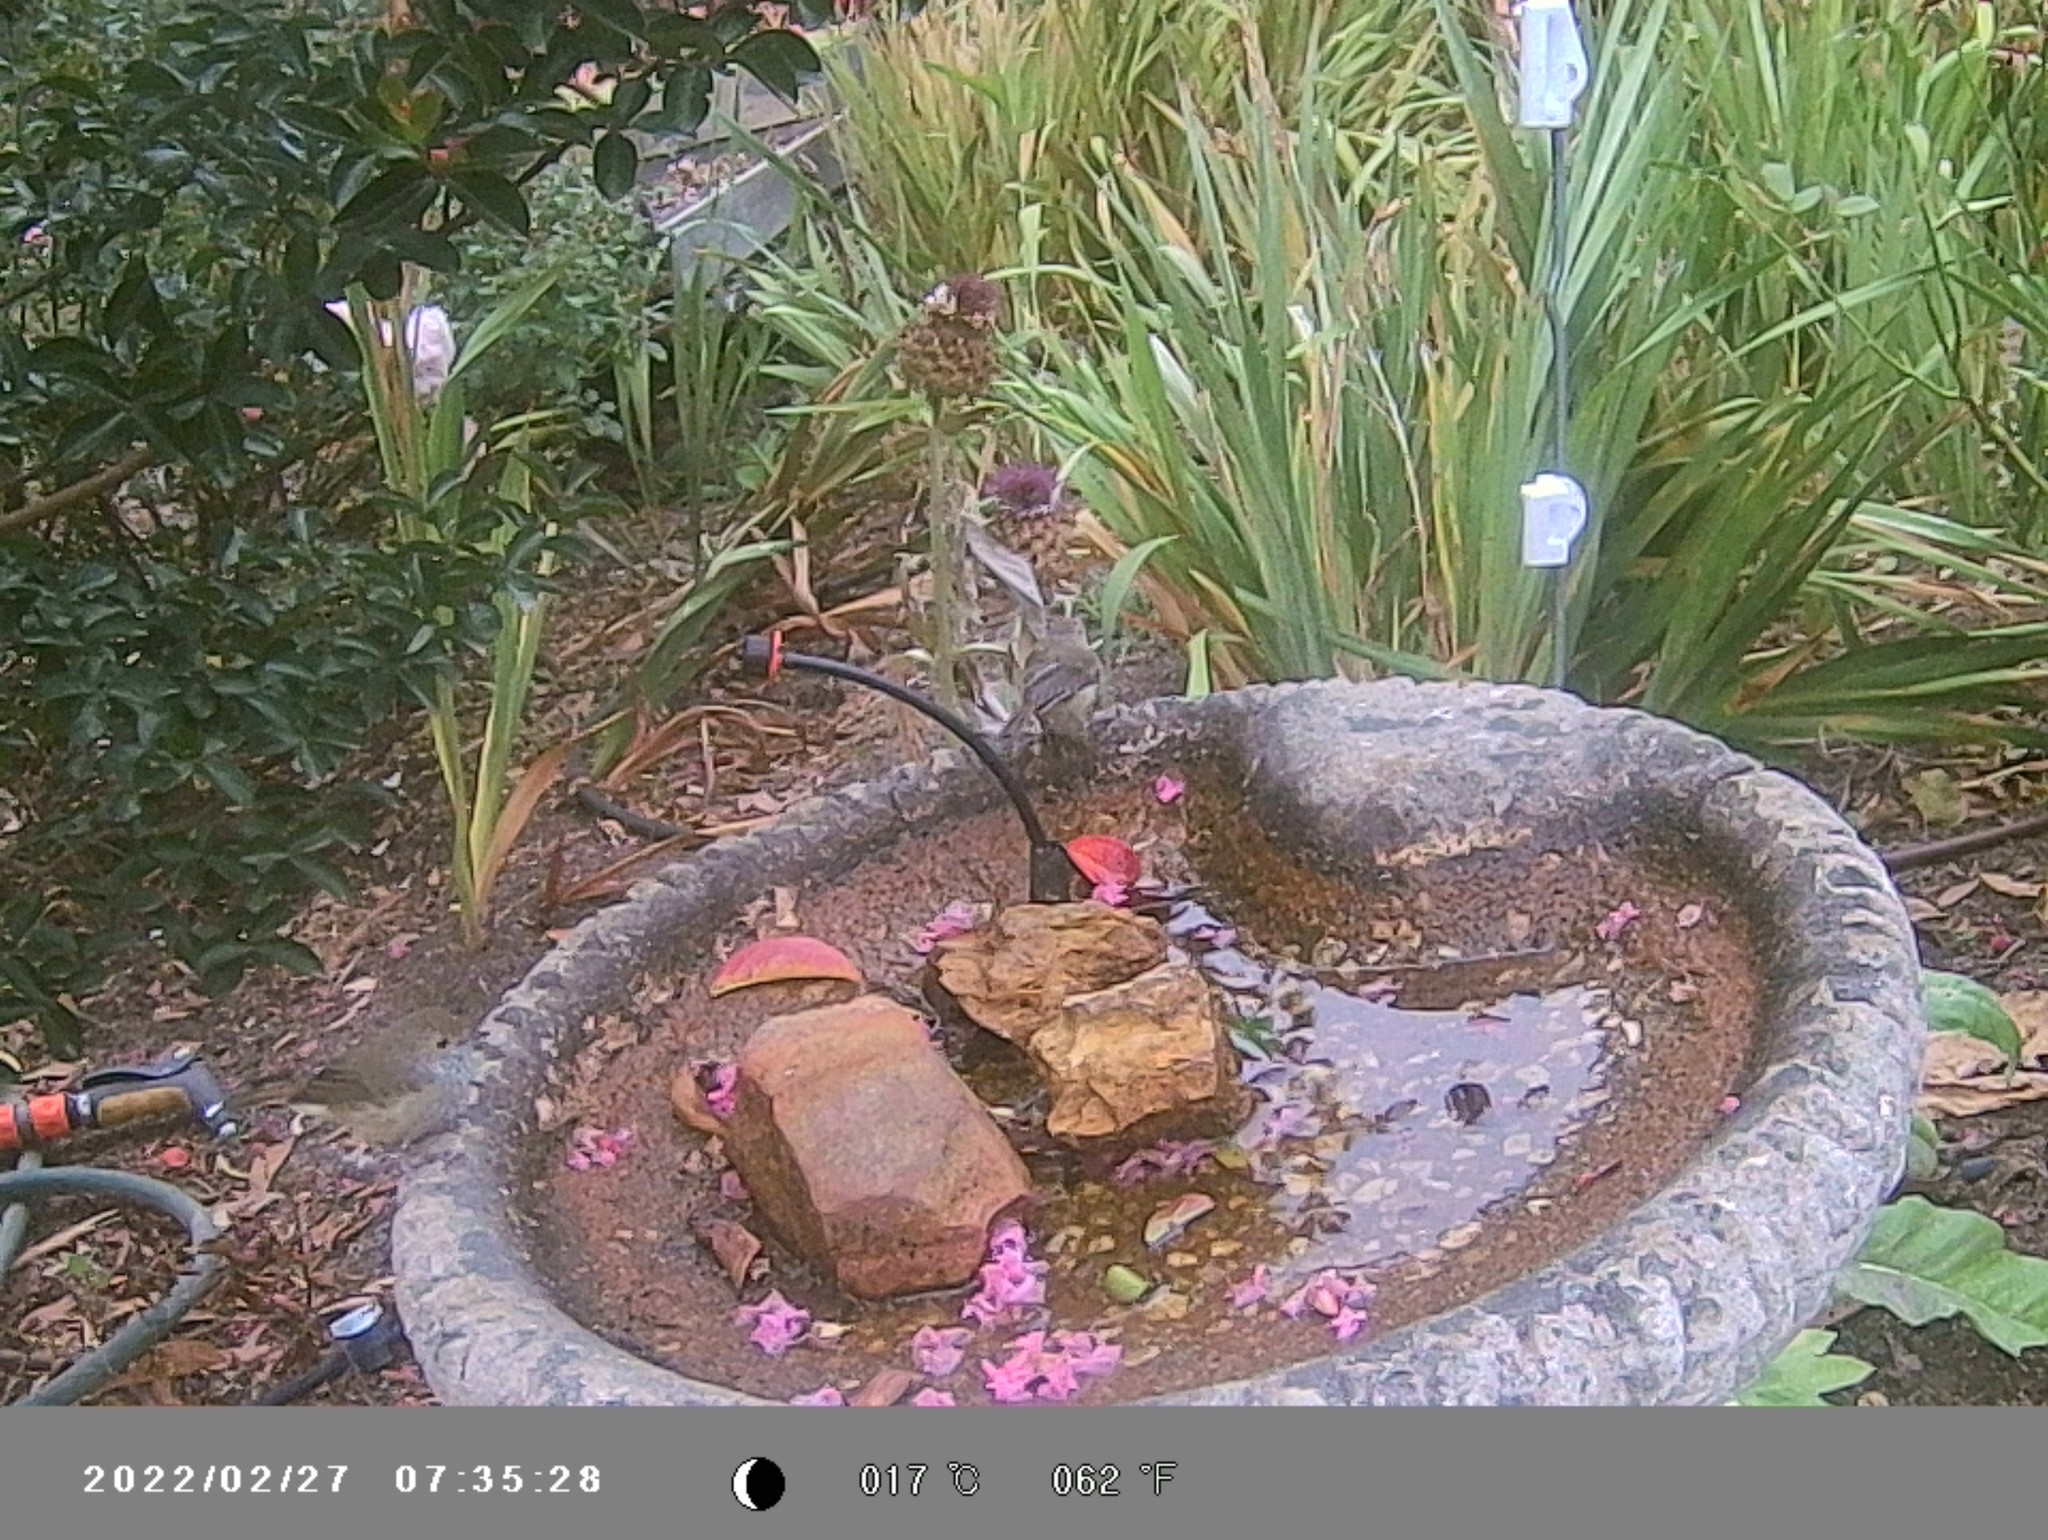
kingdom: Animalia
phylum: Chordata
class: Aves
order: Passeriformes
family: Acanthizidae
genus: Acanthiza
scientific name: Acanthiza pusilla
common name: Brown thornbill
